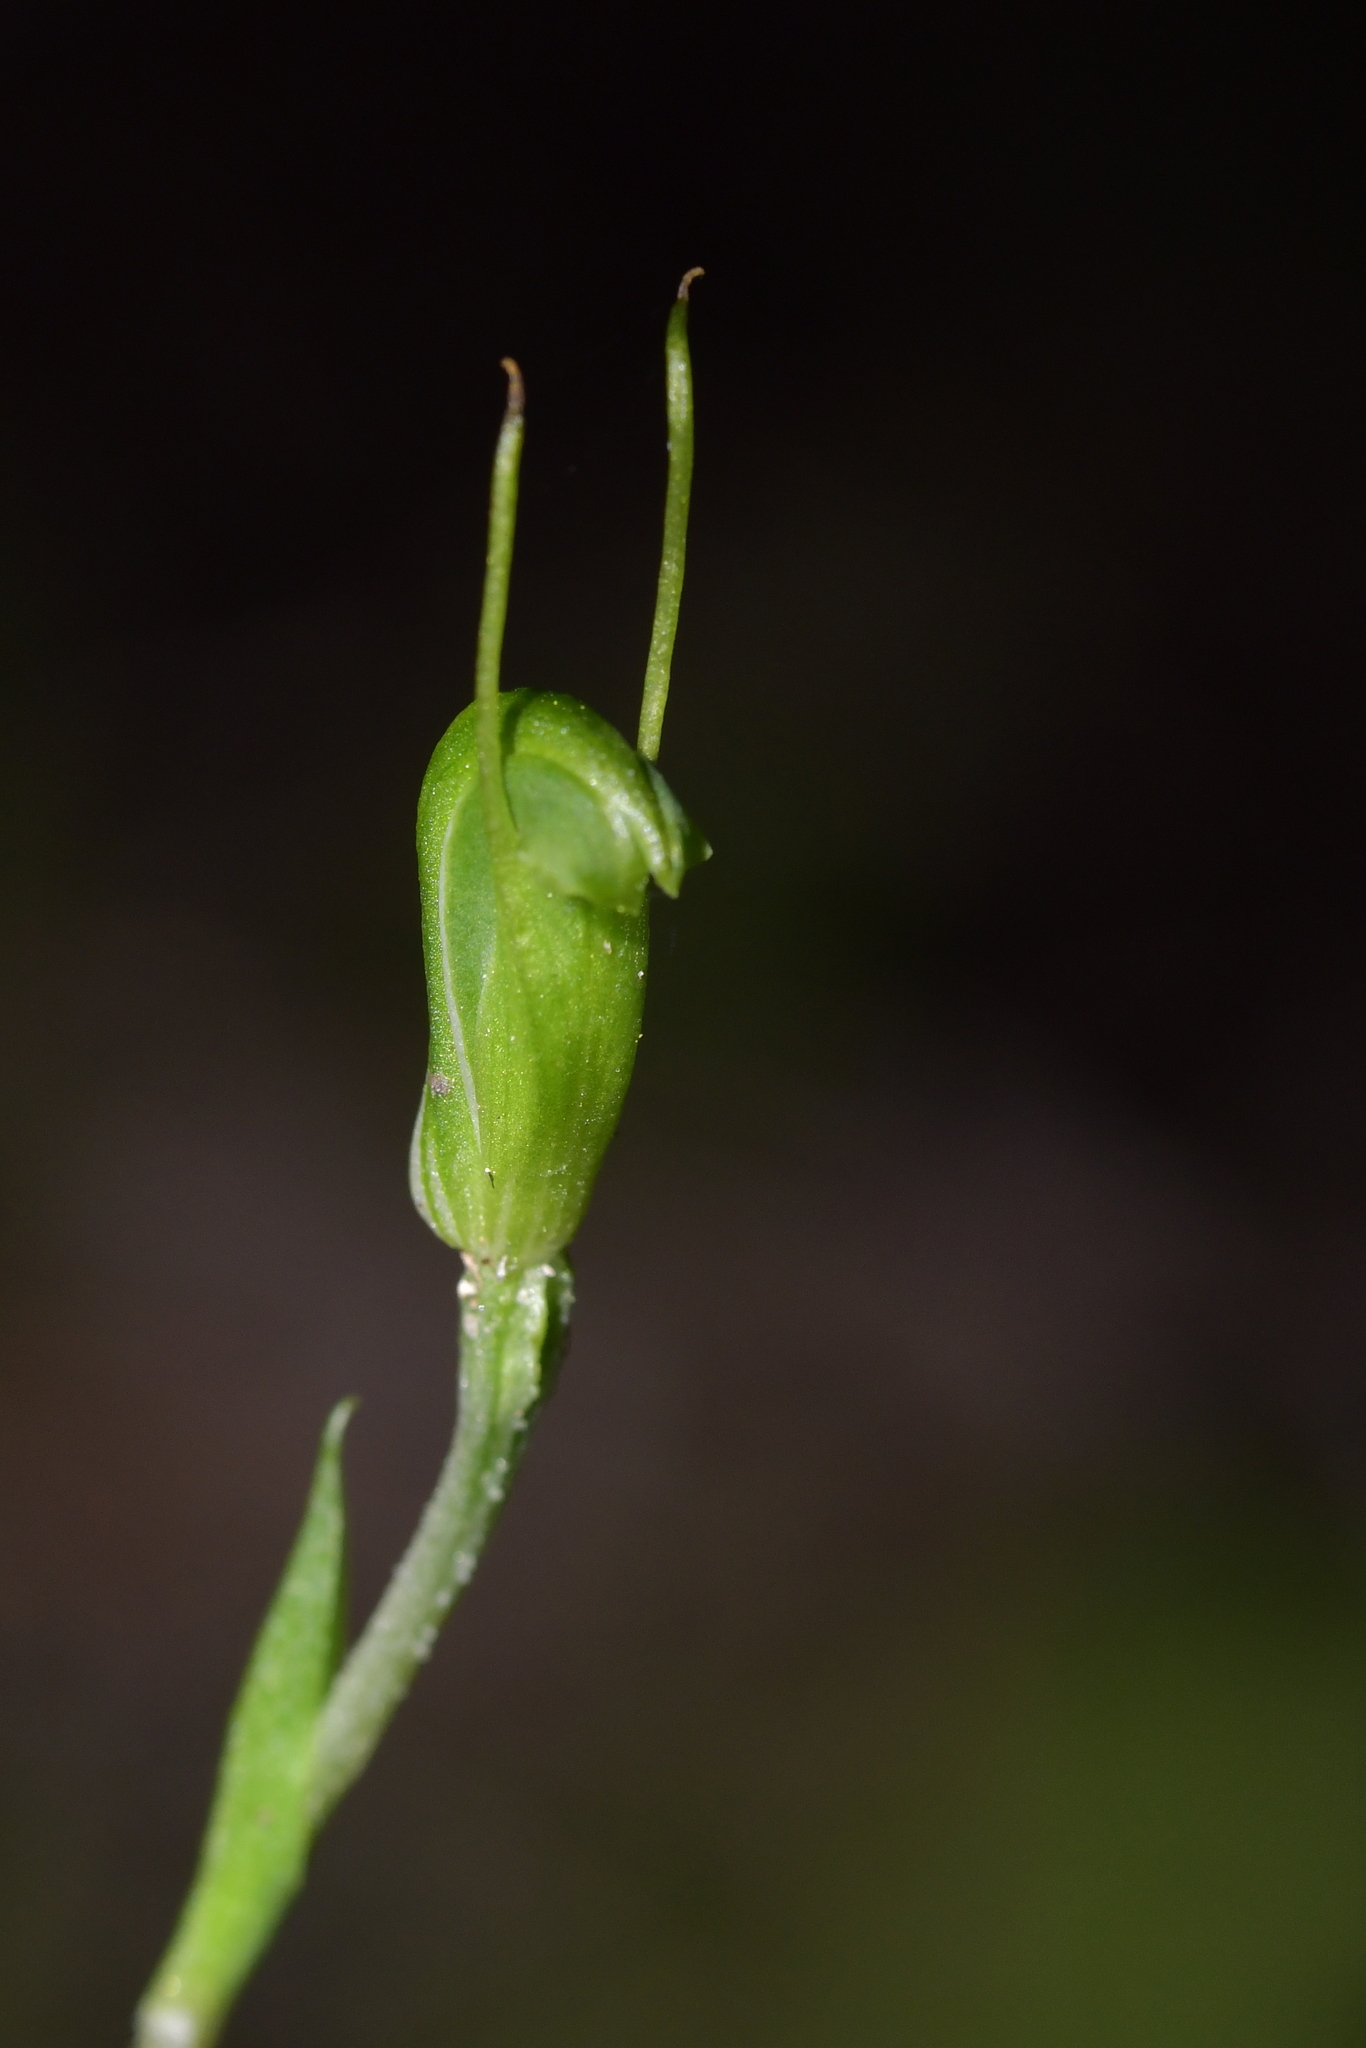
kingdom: Plantae
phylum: Tracheophyta
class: Liliopsida
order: Asparagales
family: Orchidaceae
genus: Pterostylis
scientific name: Pterostylis puberula
